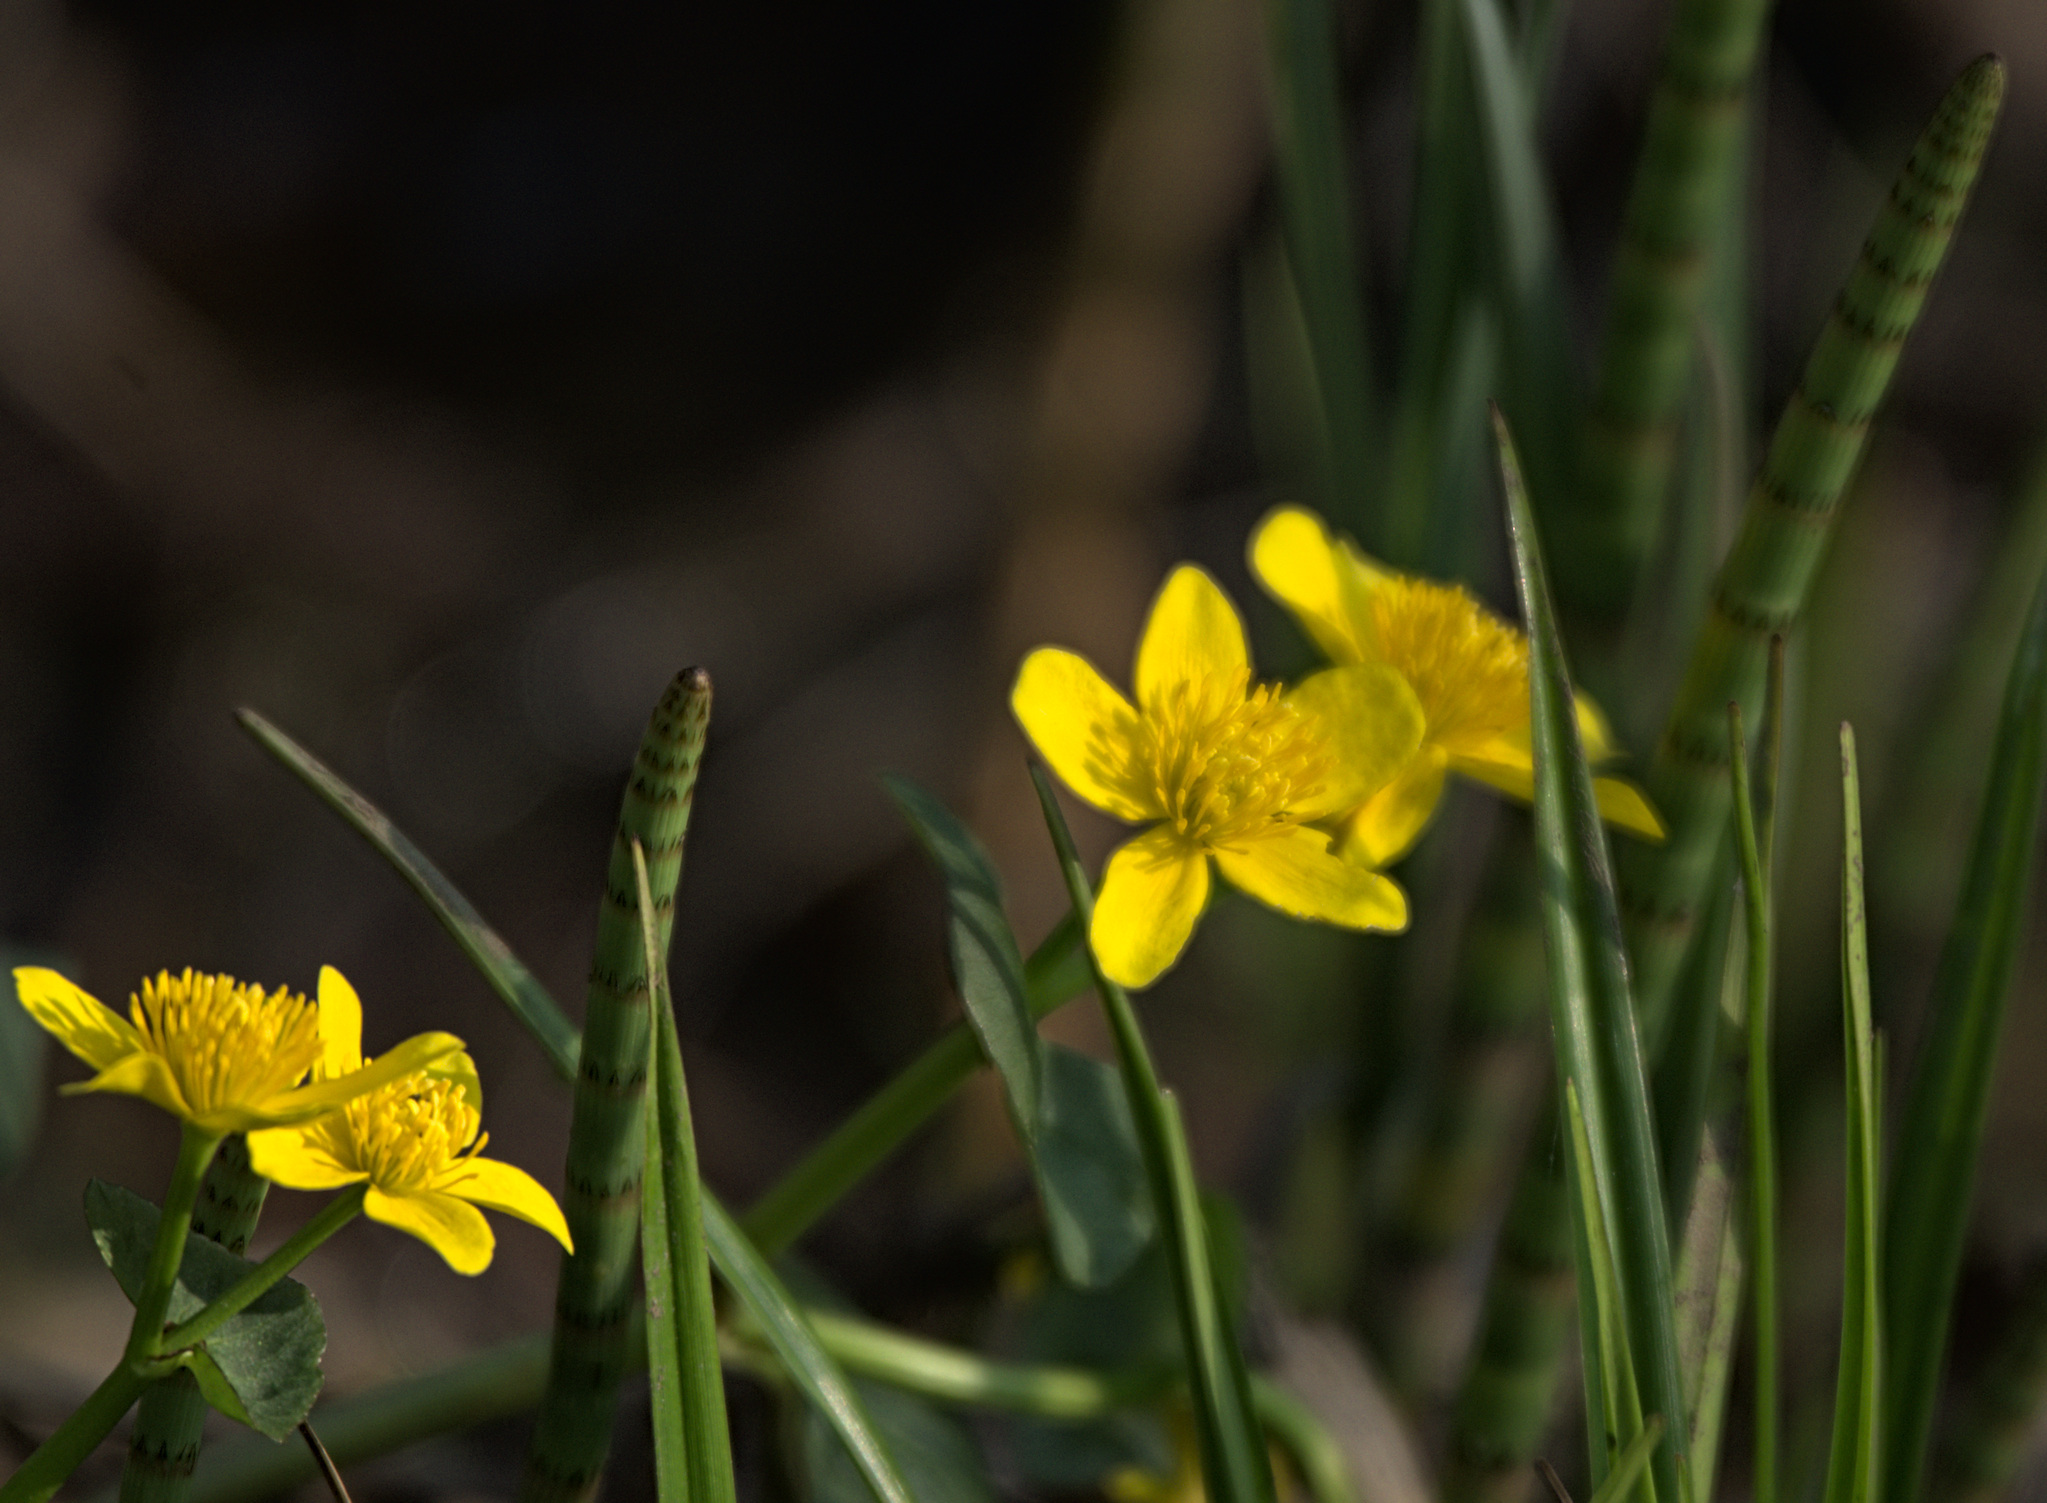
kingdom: Plantae
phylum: Tracheophyta
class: Magnoliopsida
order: Ranunculales
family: Ranunculaceae
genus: Caltha
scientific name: Caltha palustris
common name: Marsh marigold
